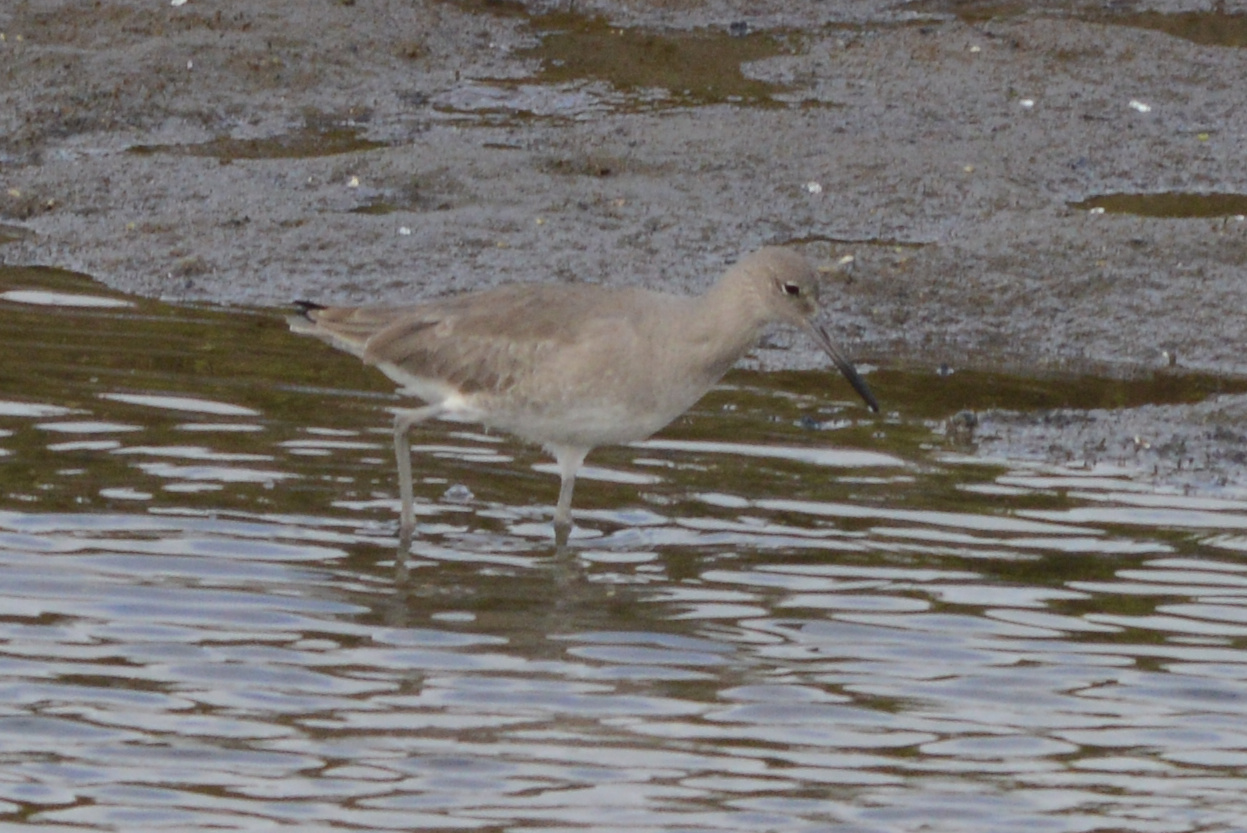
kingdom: Animalia
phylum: Chordata
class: Aves
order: Charadriiformes
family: Scolopacidae
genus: Tringa
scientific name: Tringa semipalmata
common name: Willet
